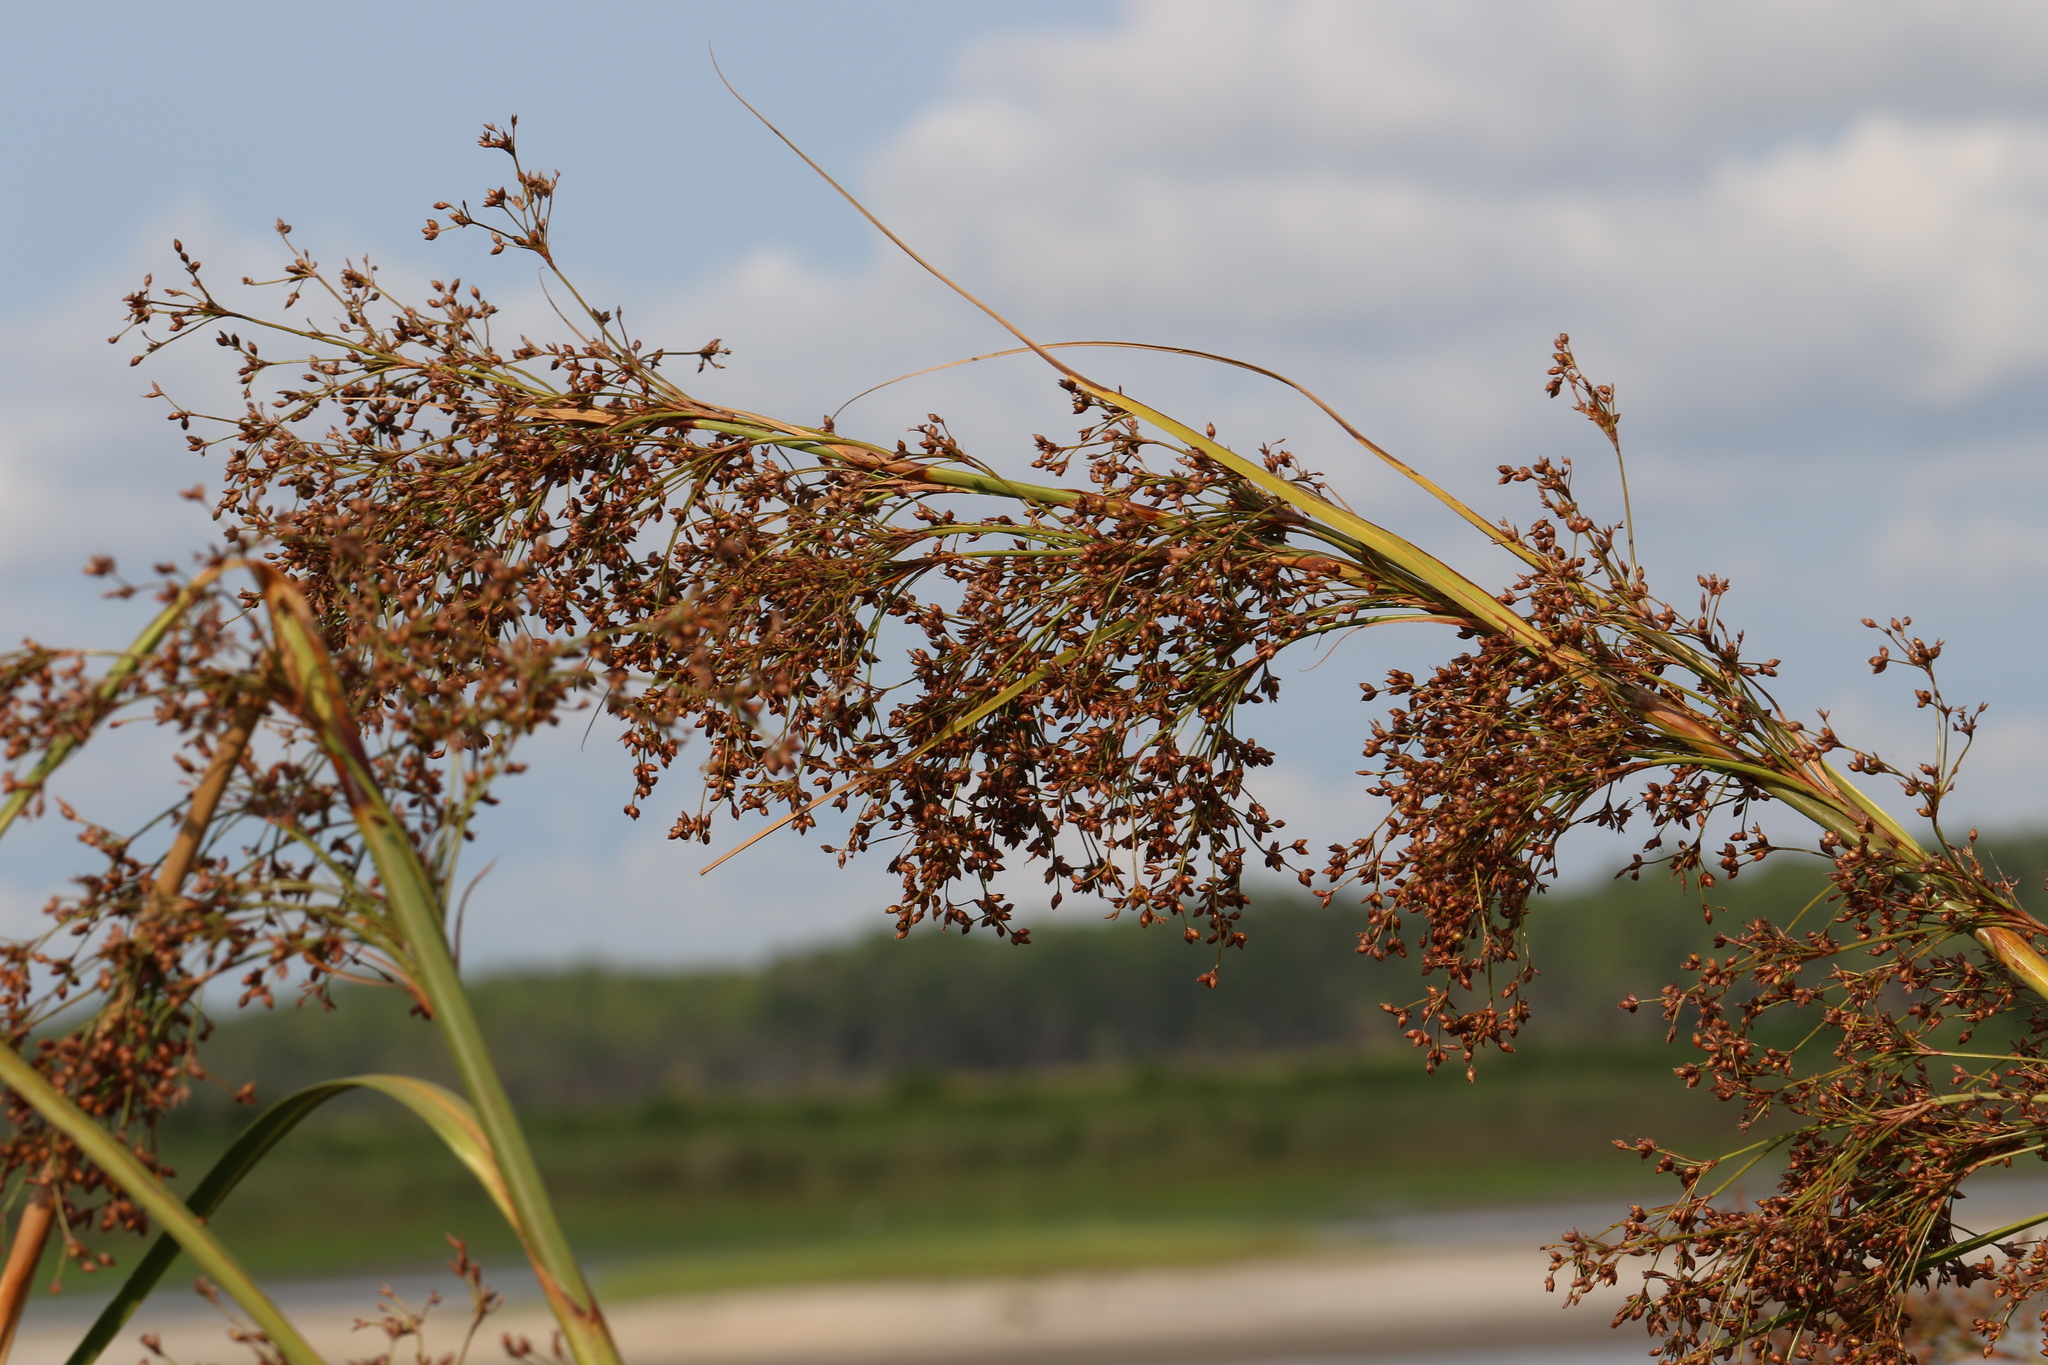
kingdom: Plantae
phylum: Tracheophyta
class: Liliopsida
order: Poales
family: Cyperaceae
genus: Cladium
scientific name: Cladium mariscus
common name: Great fen-sedge
